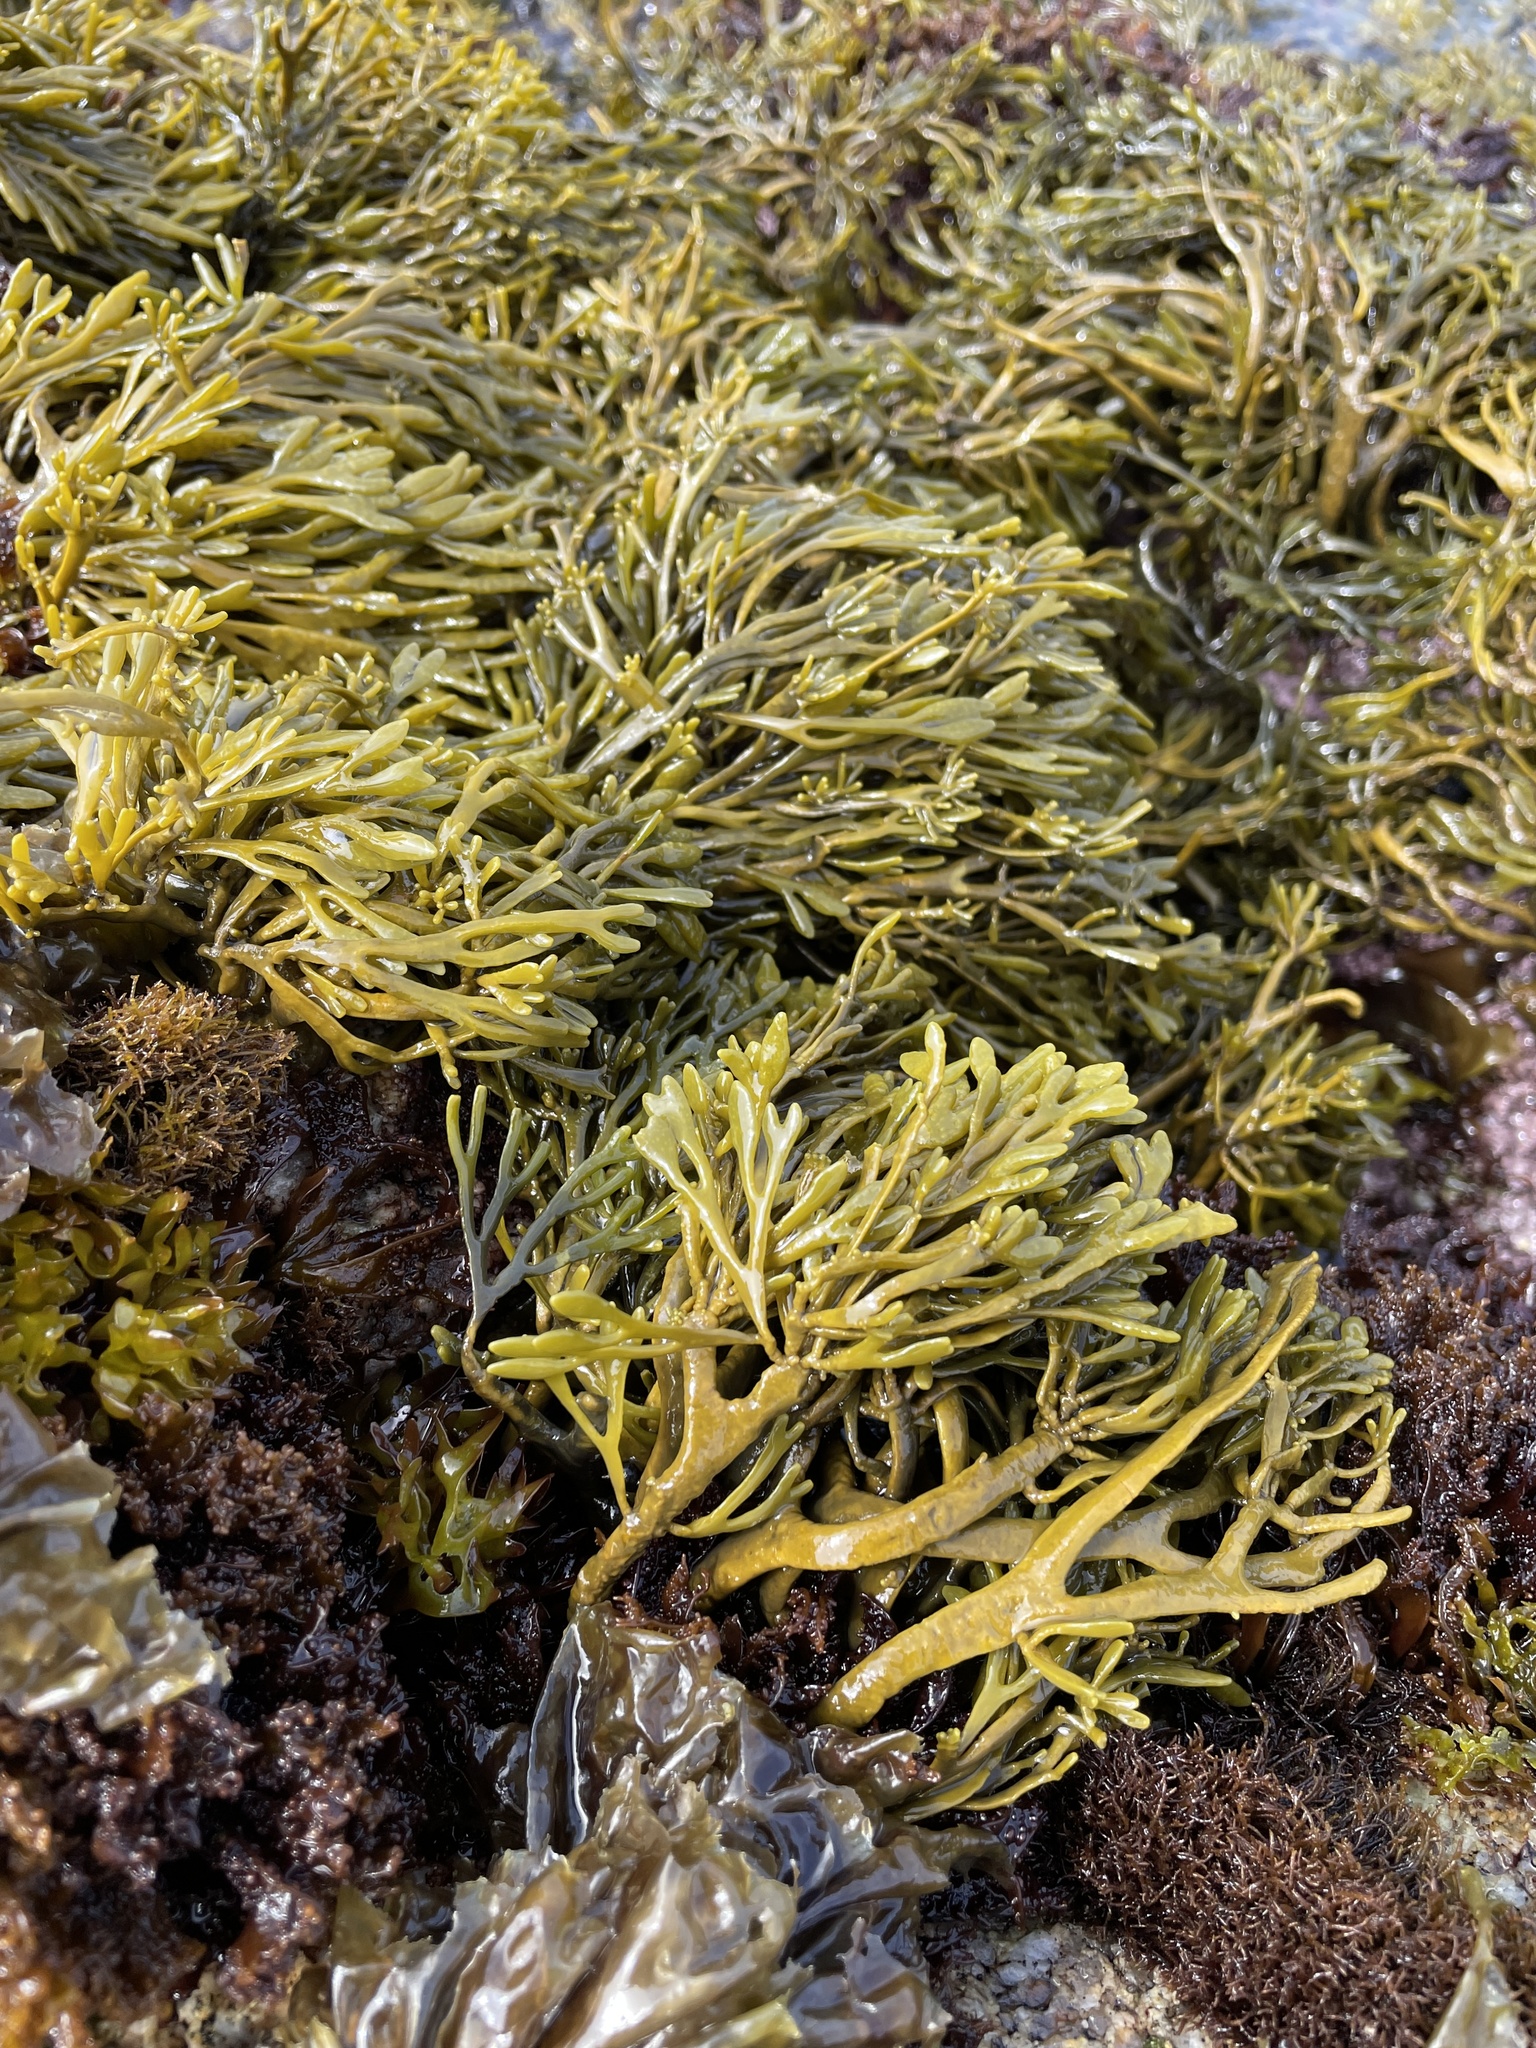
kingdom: Chromista
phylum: Ochrophyta
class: Phaeophyceae
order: Fucales
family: Fucaceae
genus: Silvetia
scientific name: Silvetia
